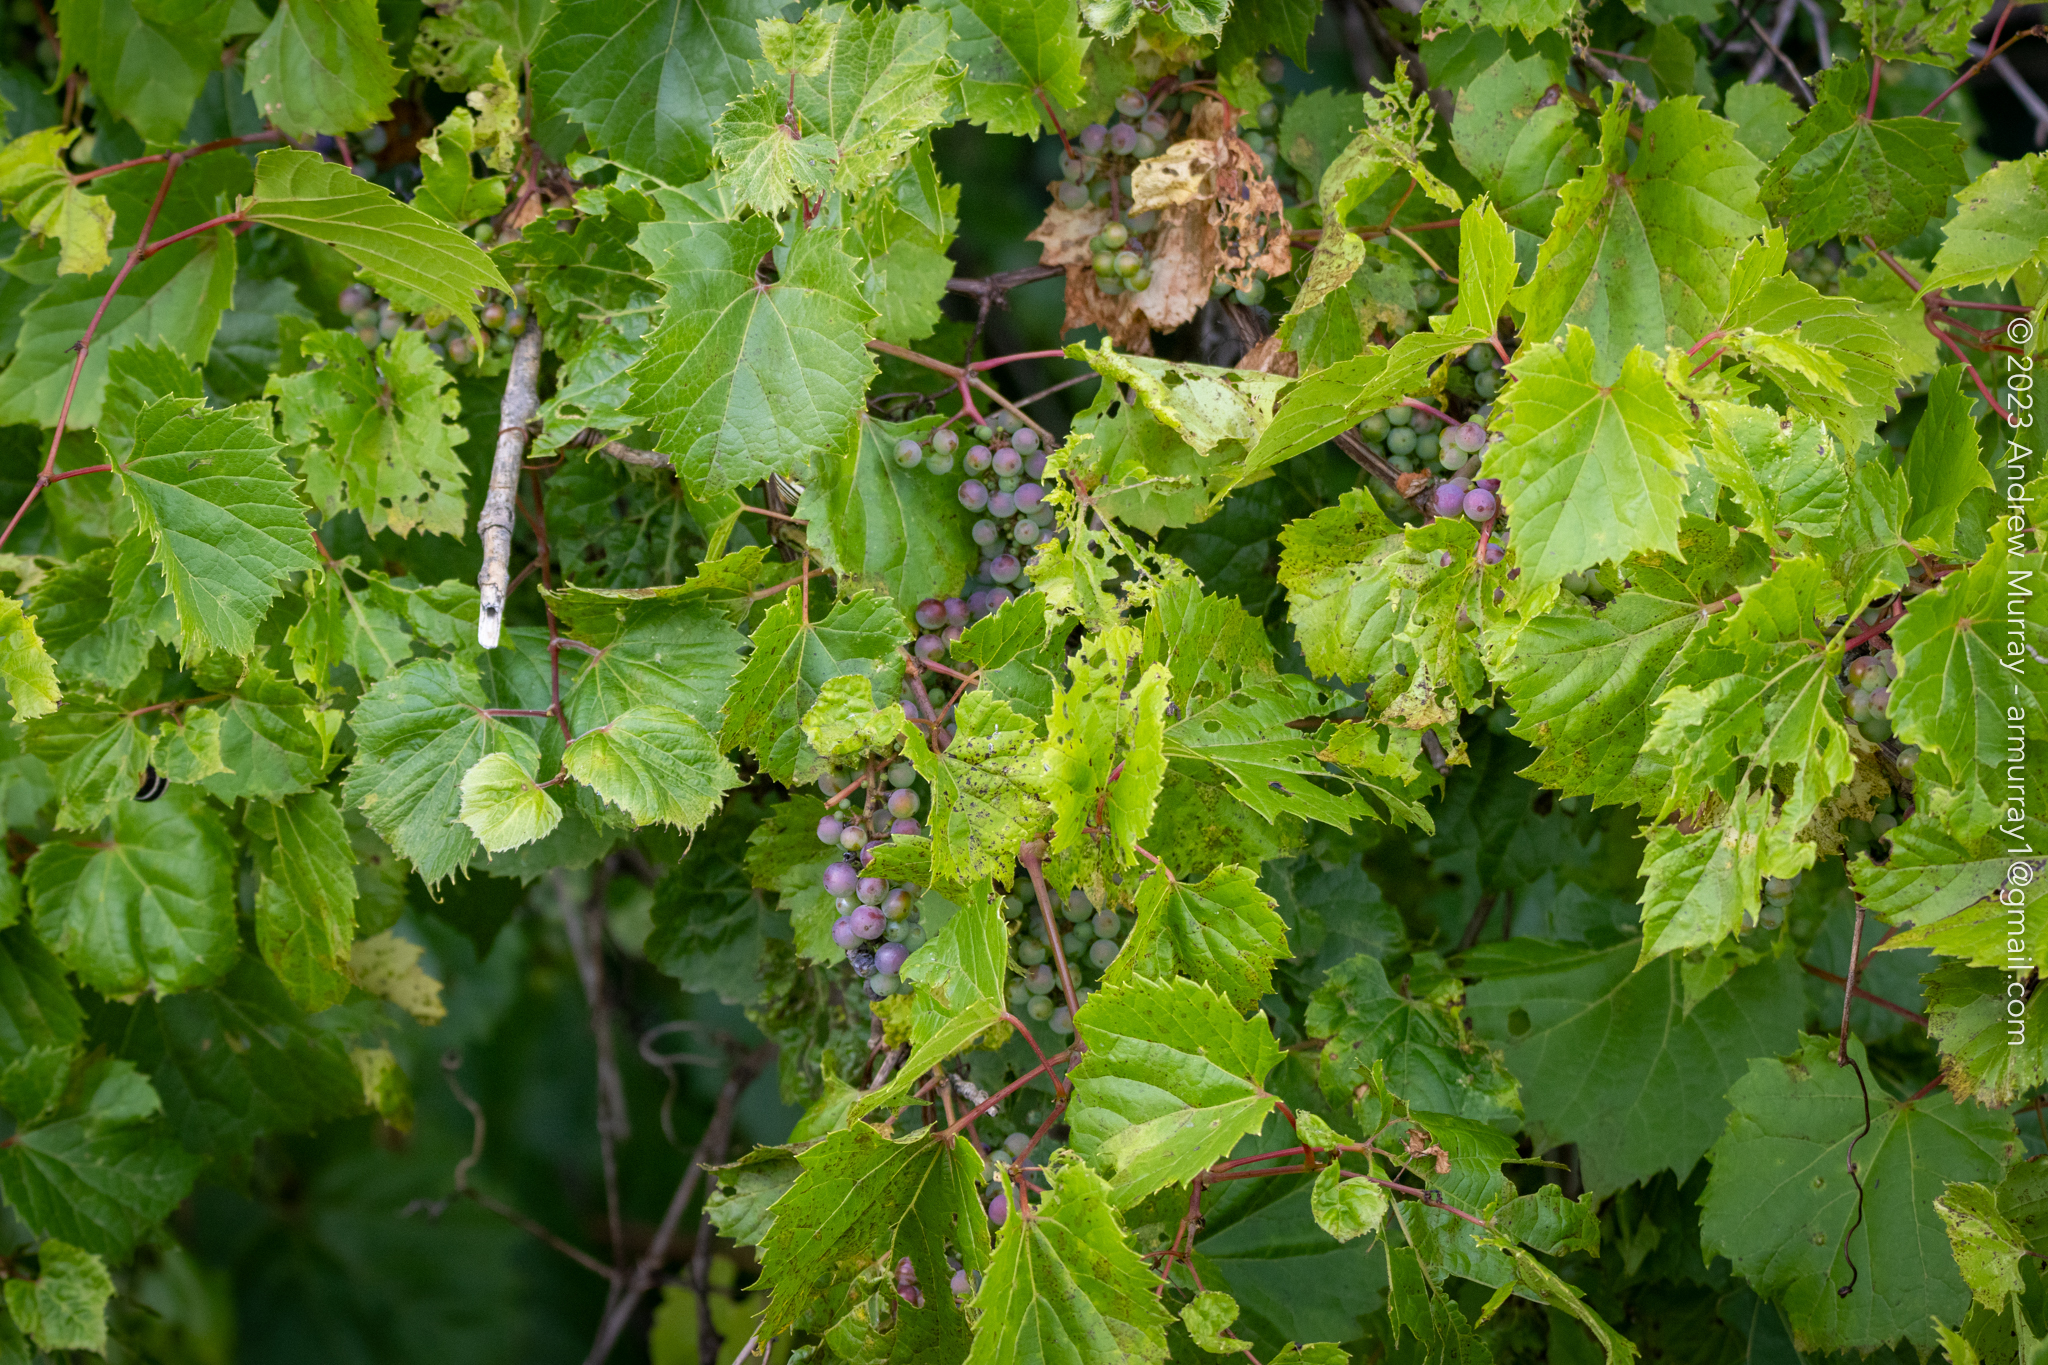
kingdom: Plantae
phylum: Tracheophyta
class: Magnoliopsida
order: Vitales
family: Vitaceae
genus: Vitis
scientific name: Vitis riparia
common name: Frost grape
